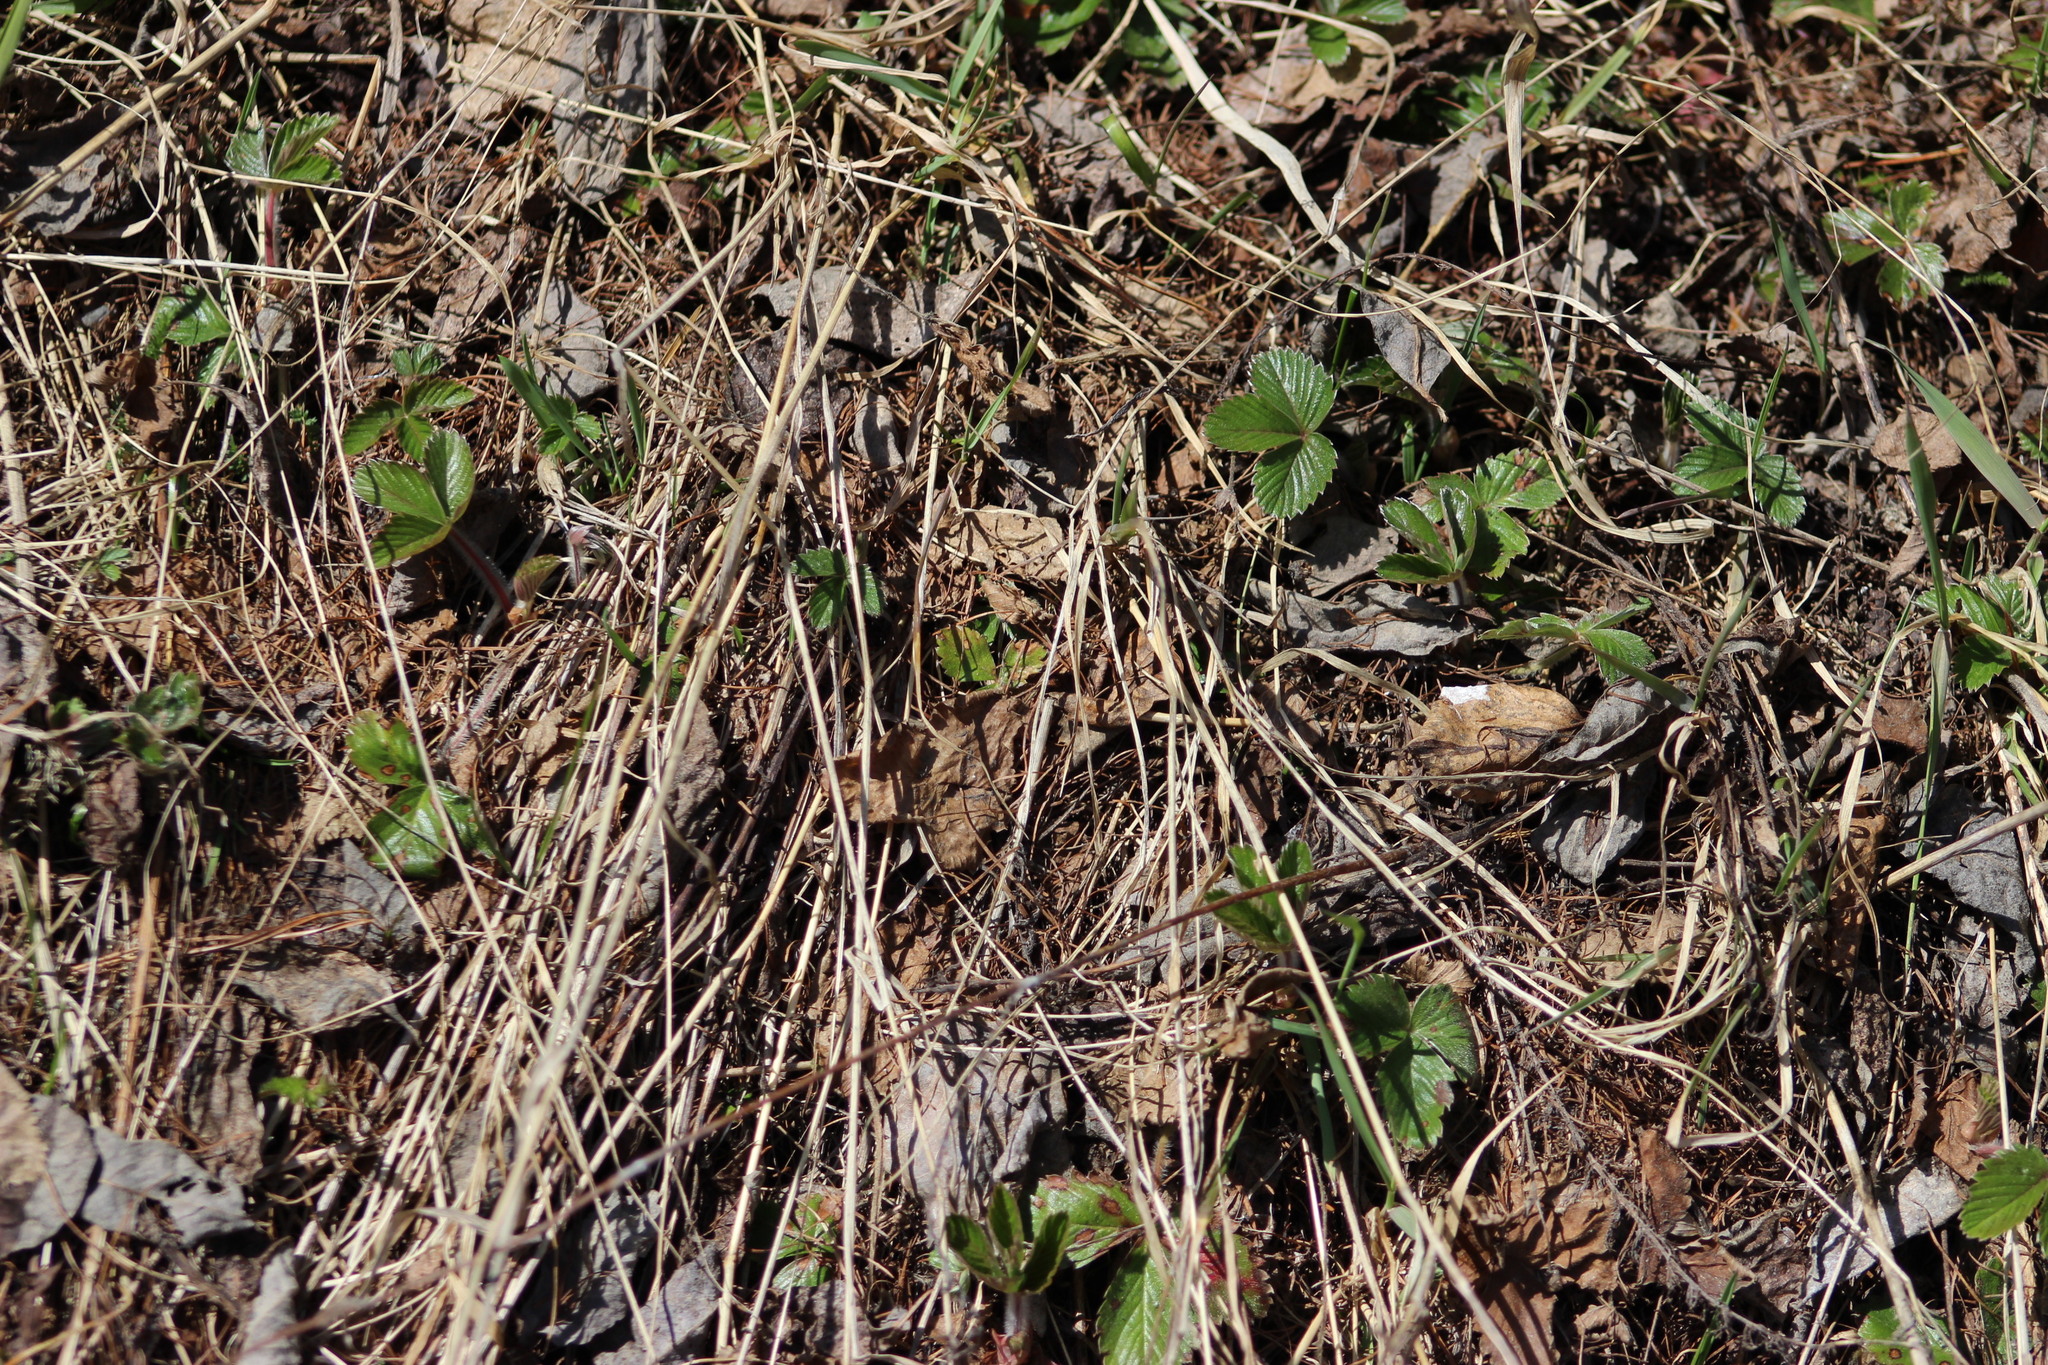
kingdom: Plantae
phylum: Tracheophyta
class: Magnoliopsida
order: Rosales
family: Rosaceae
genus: Fragaria
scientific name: Fragaria vesca
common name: Wild strawberry
